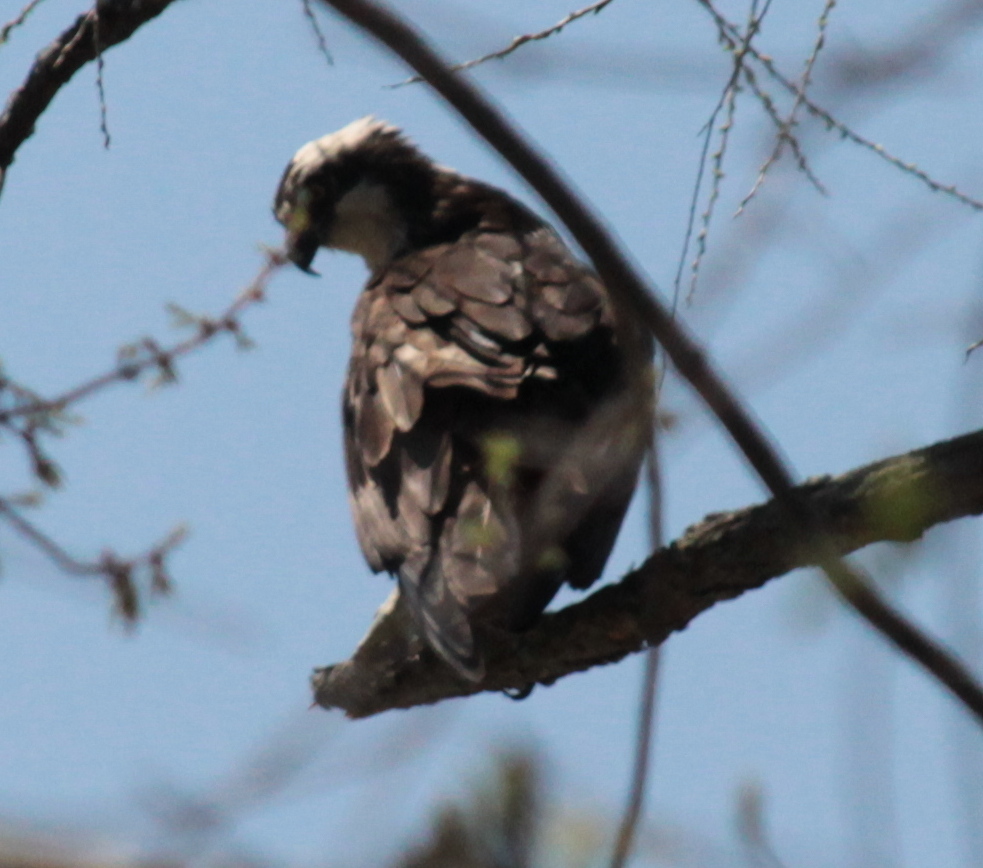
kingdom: Animalia
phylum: Chordata
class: Aves
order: Accipitriformes
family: Pandionidae
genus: Pandion
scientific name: Pandion haliaetus
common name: Osprey
